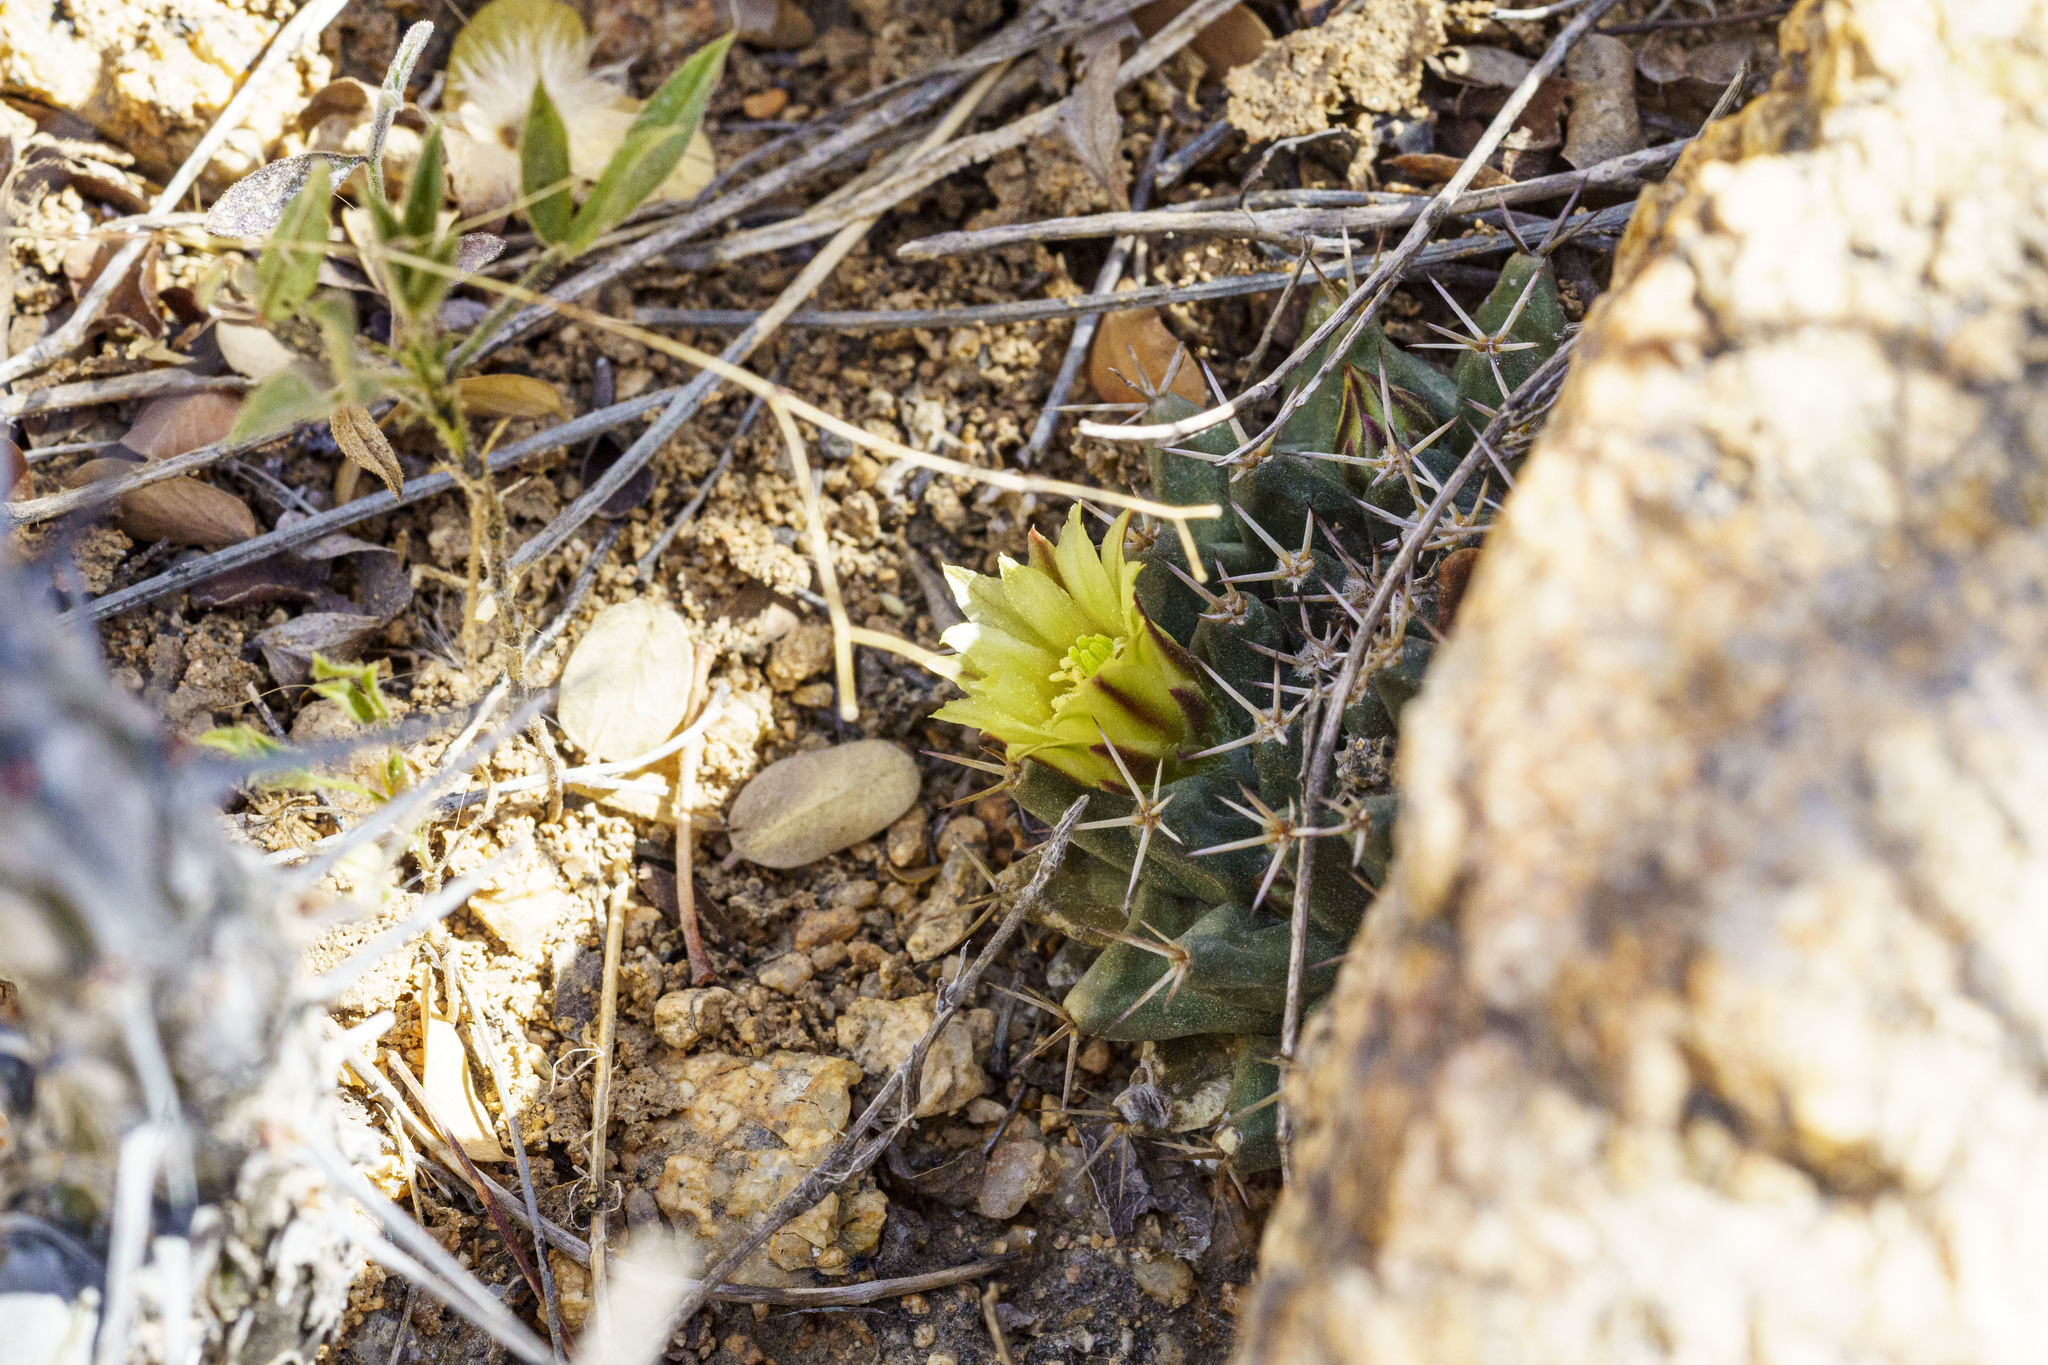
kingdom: Plantae
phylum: Tracheophyta
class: Magnoliopsida
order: Caryophyllales
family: Cactaceae
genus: Mammillaria
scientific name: Mammillaria peninsularis
